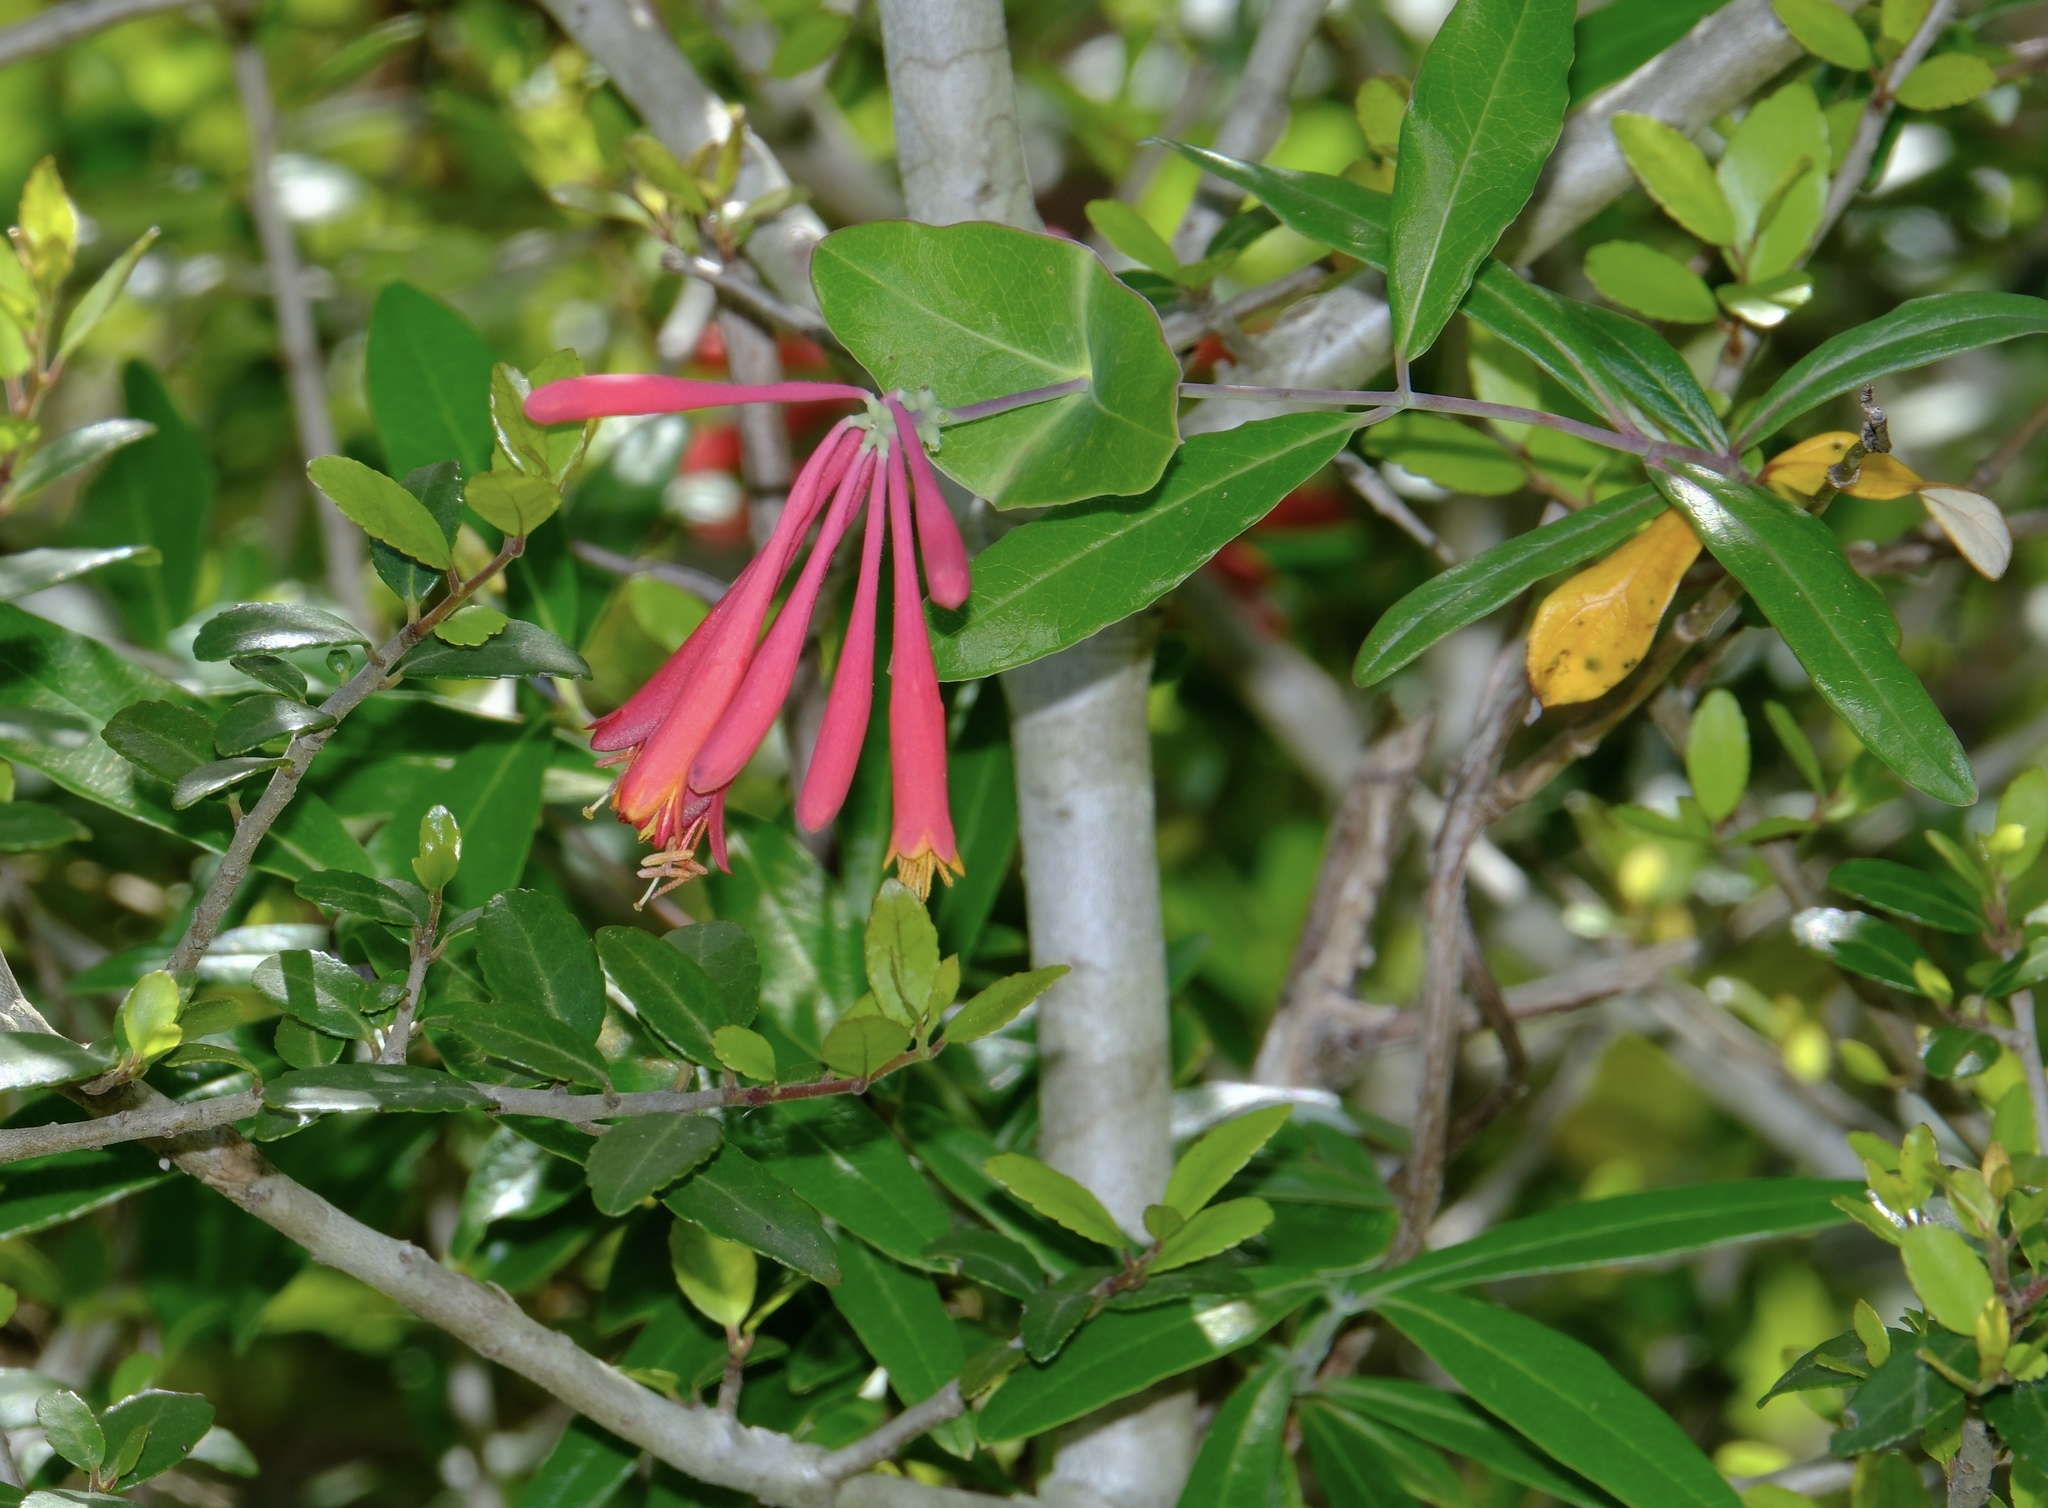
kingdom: Plantae
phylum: Tracheophyta
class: Magnoliopsida
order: Dipsacales
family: Caprifoliaceae
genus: Lonicera
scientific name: Lonicera sempervirens
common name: Coral honeysuckle
